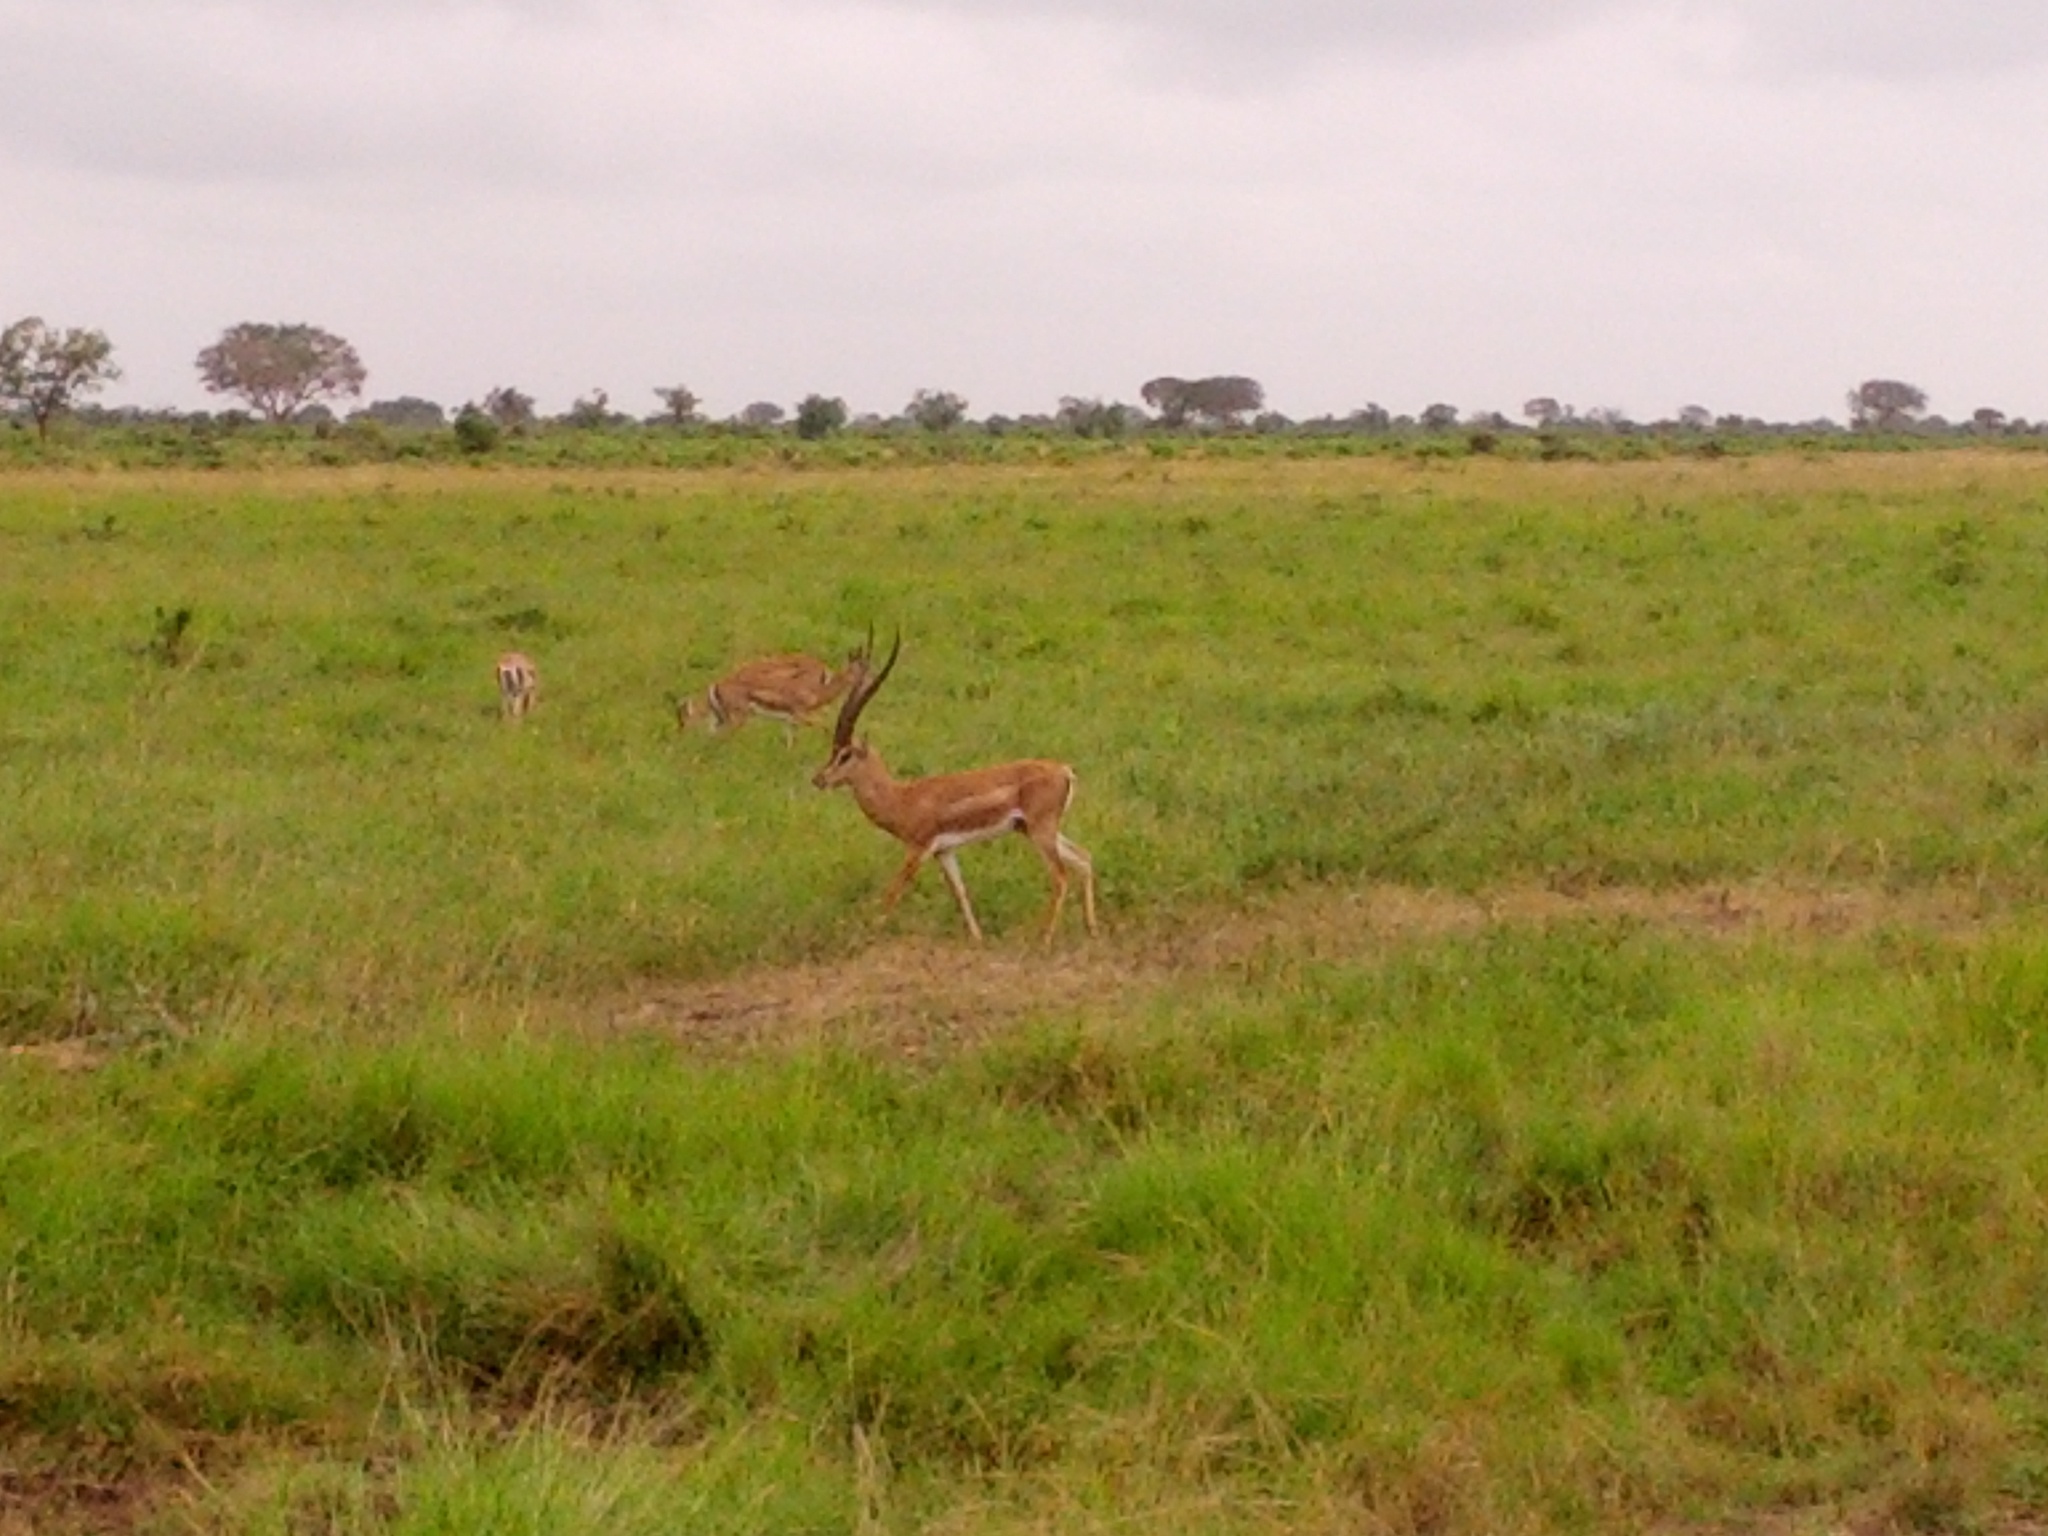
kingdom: Animalia
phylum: Chordata
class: Mammalia
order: Artiodactyla
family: Bovidae
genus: Nanger
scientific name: Nanger granti
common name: Grant's gazelle
